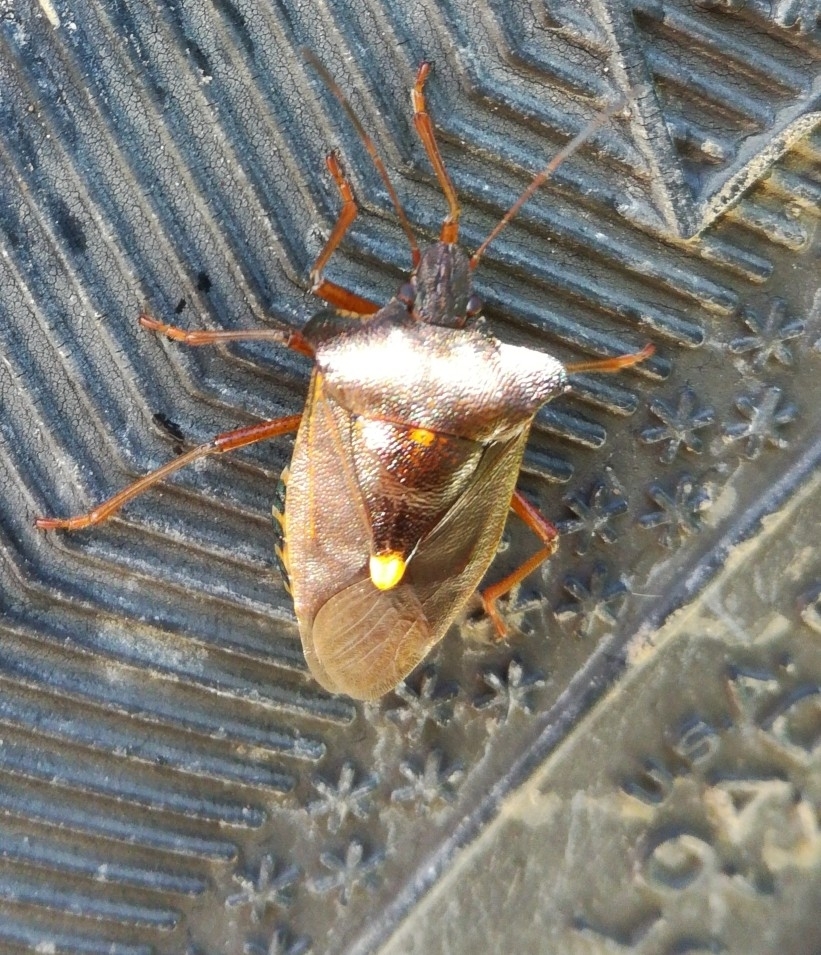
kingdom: Animalia
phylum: Arthropoda
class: Insecta
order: Hemiptera
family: Pentatomidae
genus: Pentatoma
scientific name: Pentatoma rufipes
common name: Forest bug
